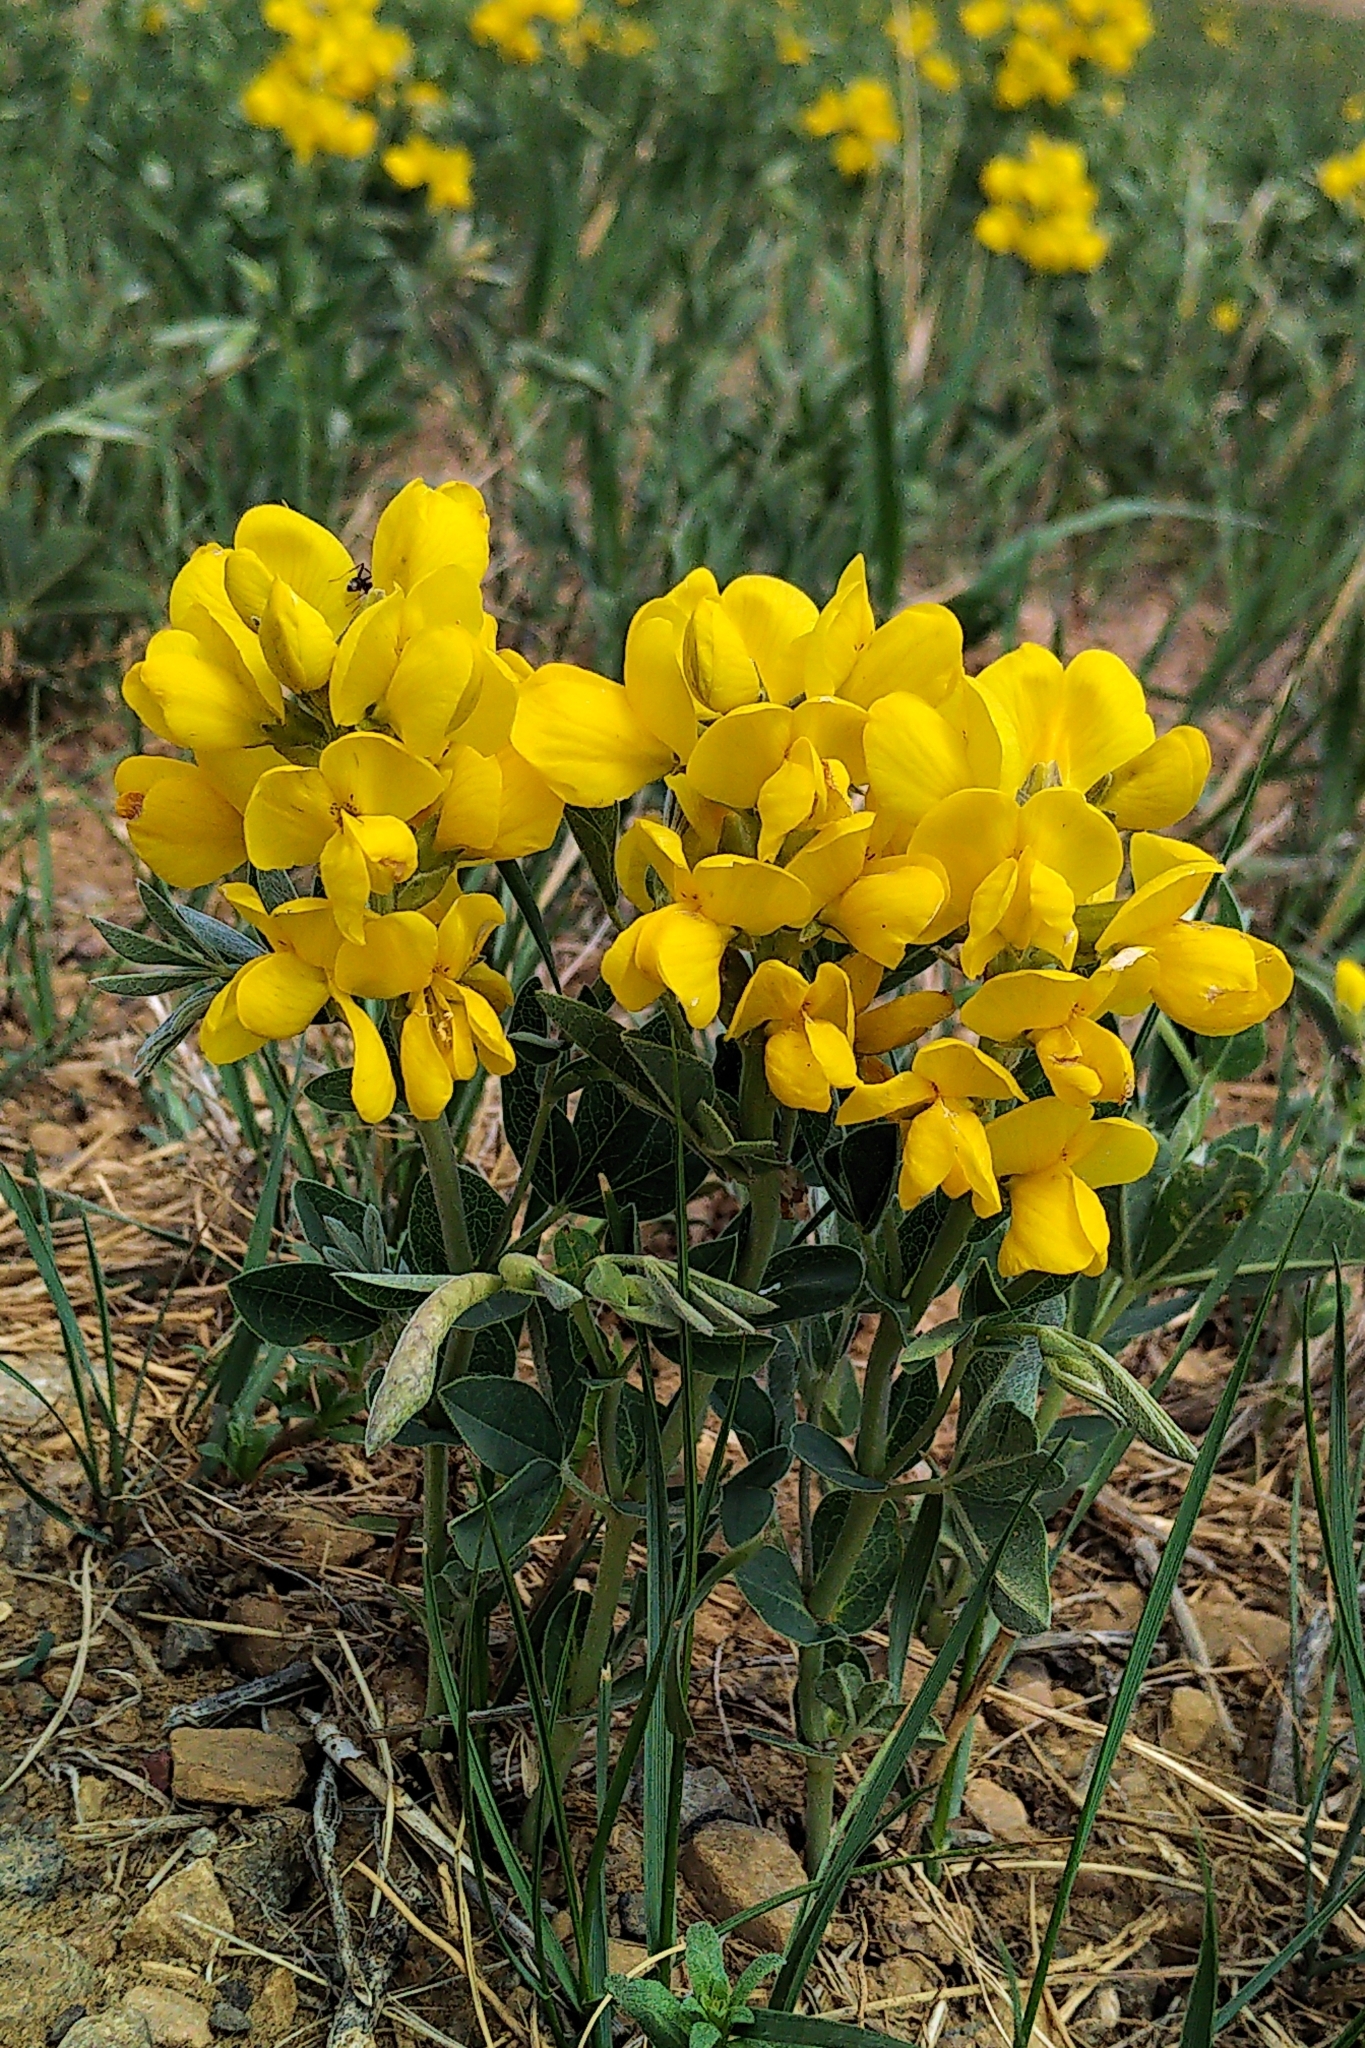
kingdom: Plantae
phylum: Tracheophyta
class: Magnoliopsida
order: Fabales
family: Fabaceae
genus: Thermopsis
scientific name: Thermopsis rhombifolia
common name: Circle-pod-pea
